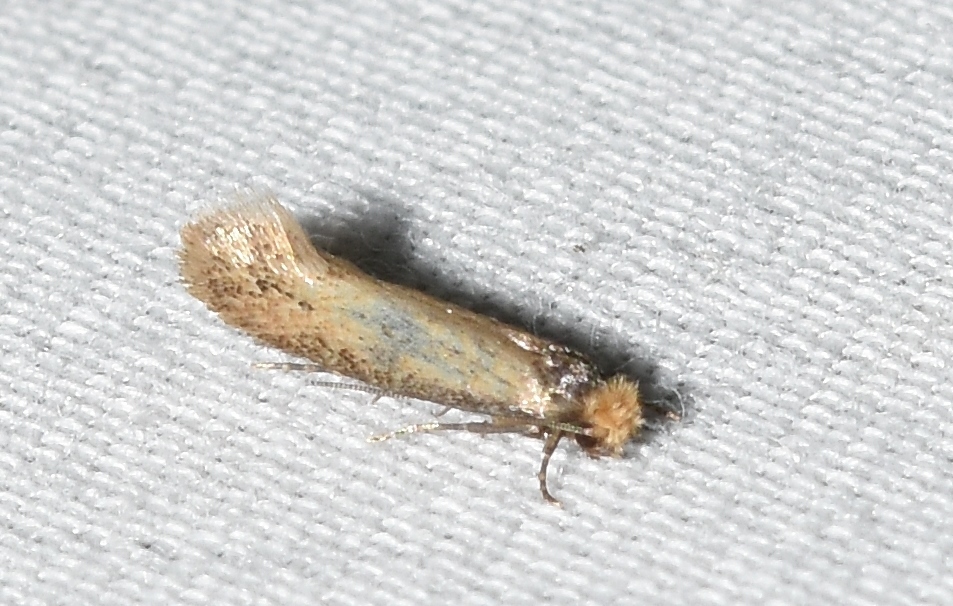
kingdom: Animalia
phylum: Arthropoda
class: Insecta
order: Lepidoptera
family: Meessiidae
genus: Homostinea
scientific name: Homostinea curviliniella
